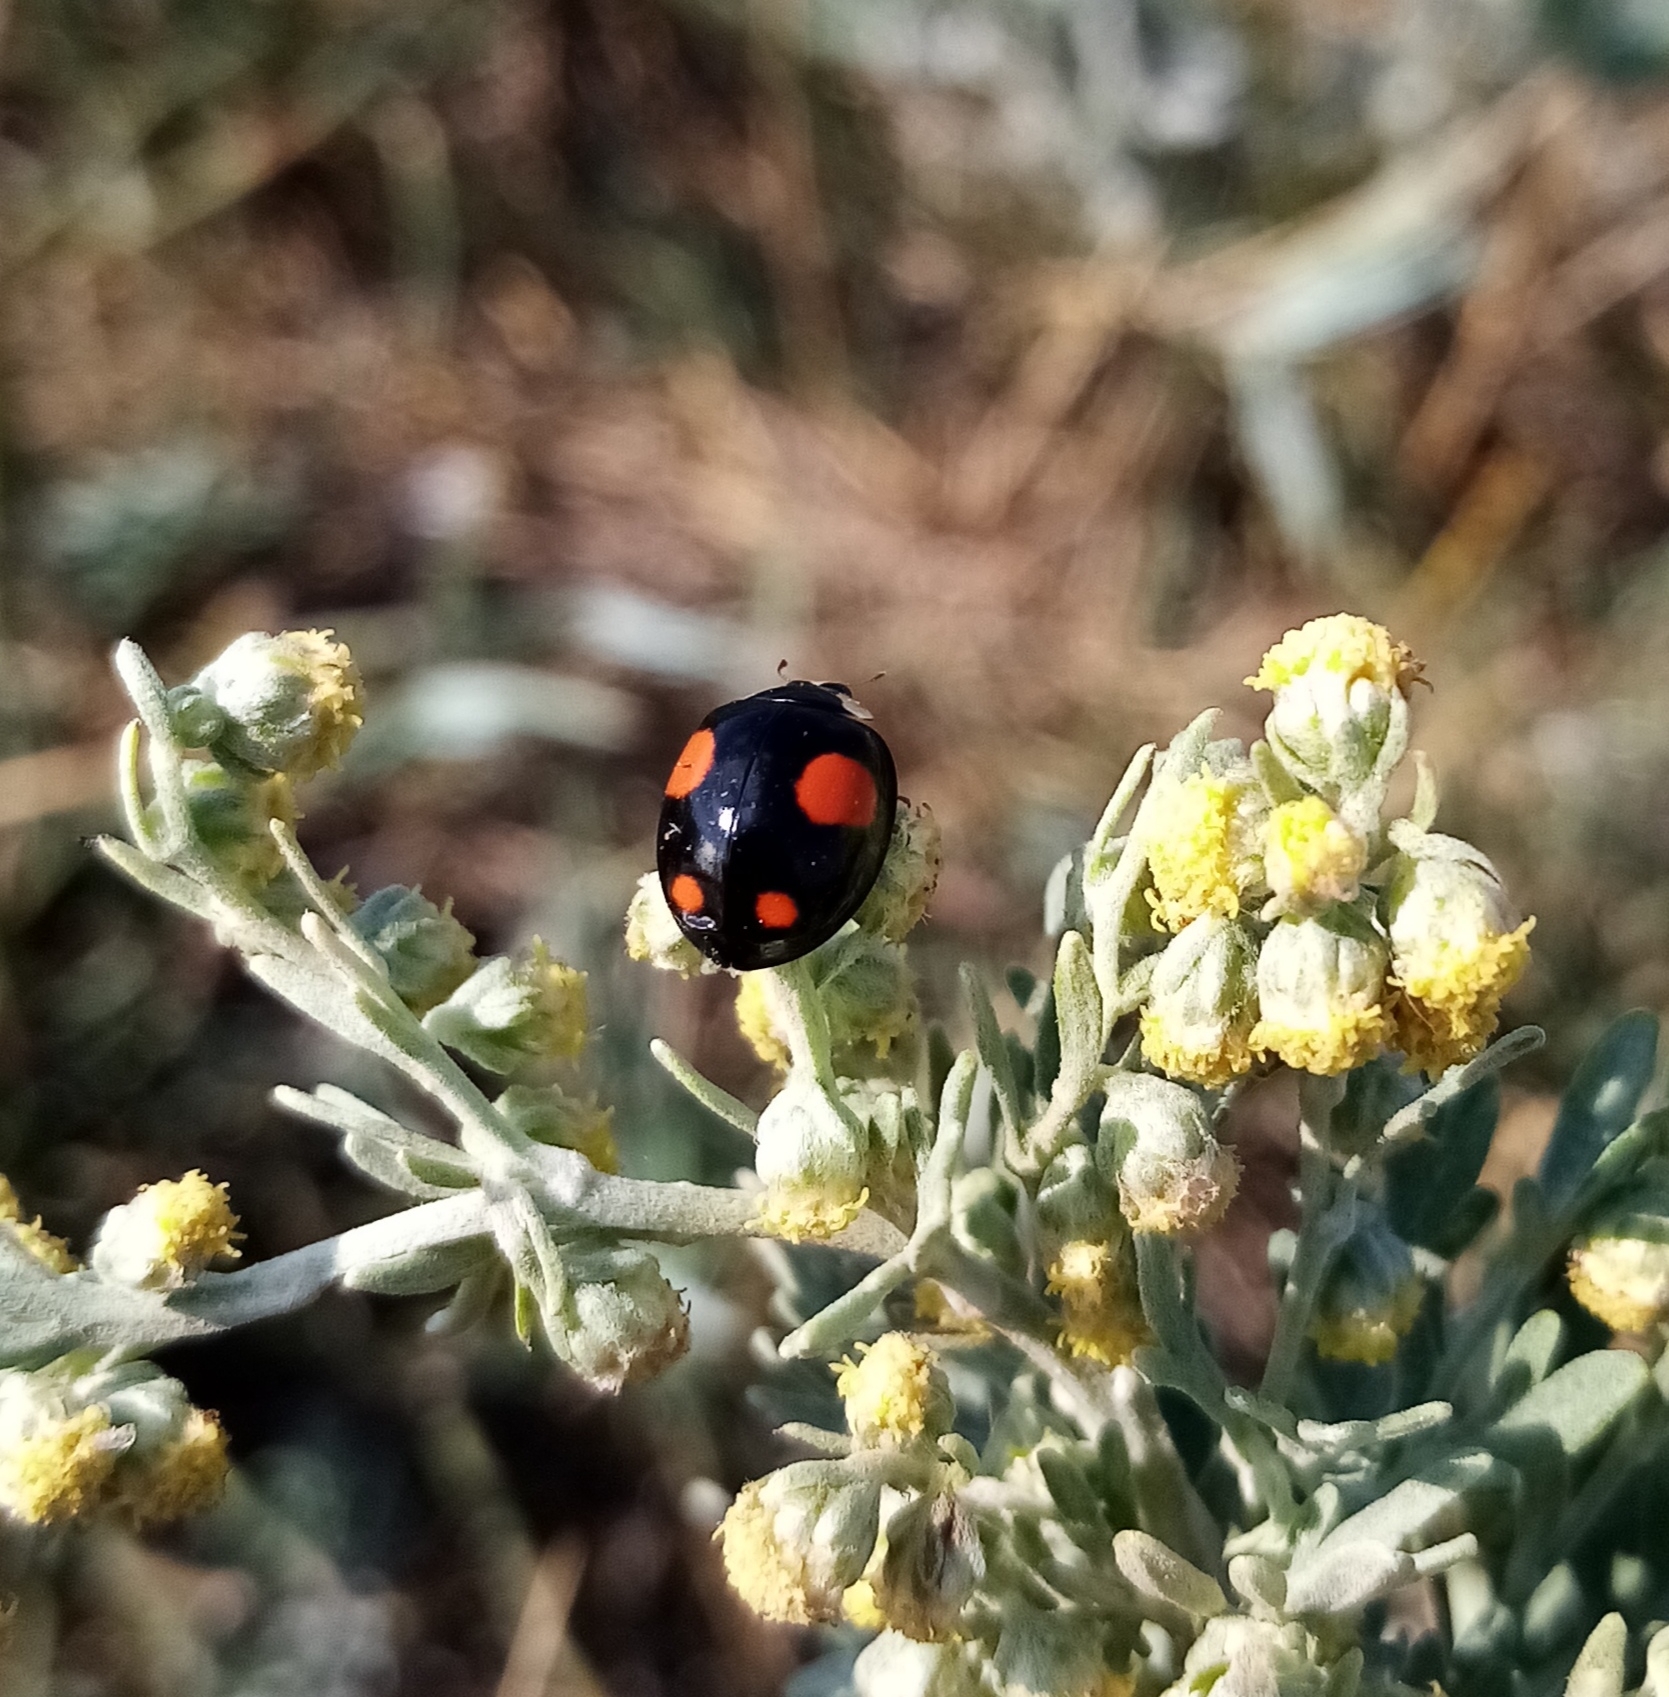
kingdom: Animalia
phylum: Arthropoda
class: Insecta
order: Coleoptera
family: Coccinellidae
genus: Harmonia
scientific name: Harmonia axyridis
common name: Harlequin ladybird
